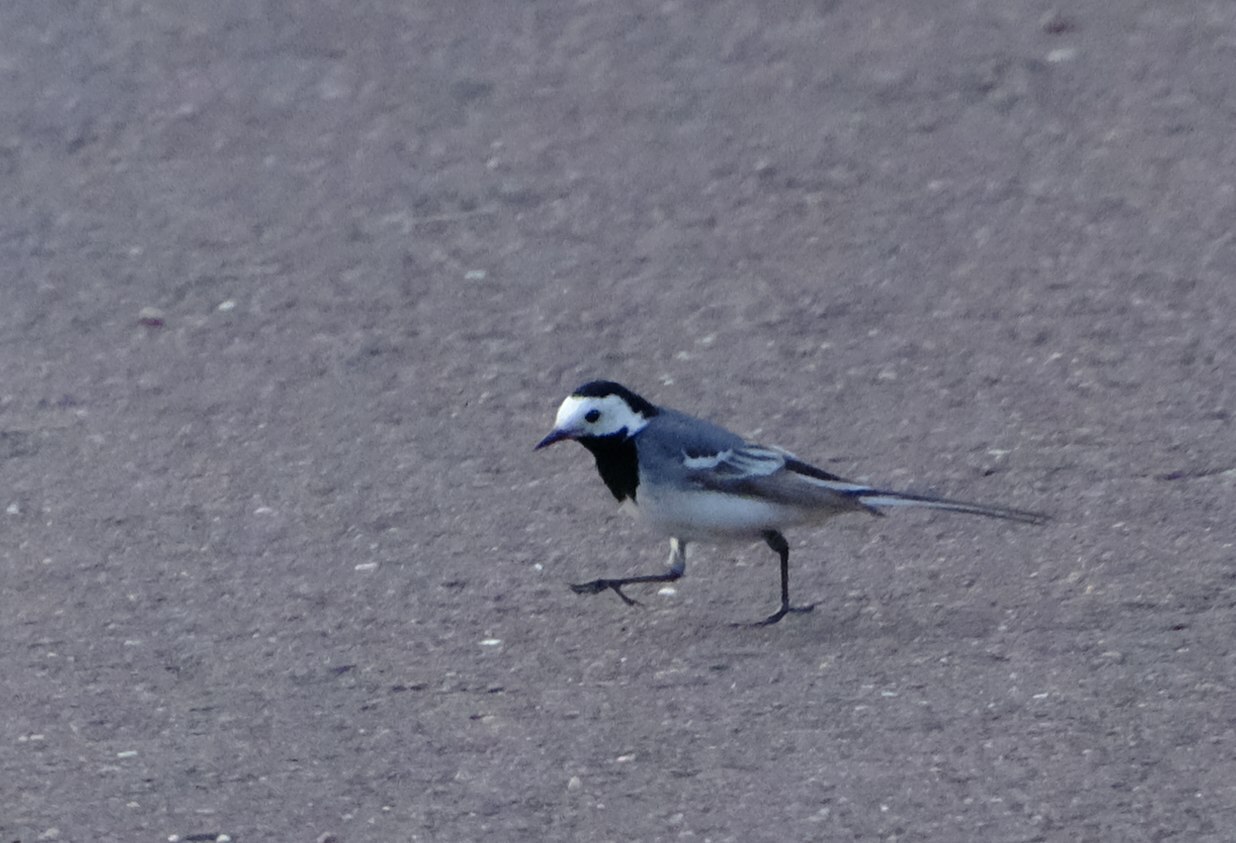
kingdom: Animalia
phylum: Chordata
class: Aves
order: Passeriformes
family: Motacillidae
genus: Motacilla
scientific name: Motacilla alba
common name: White wagtail
